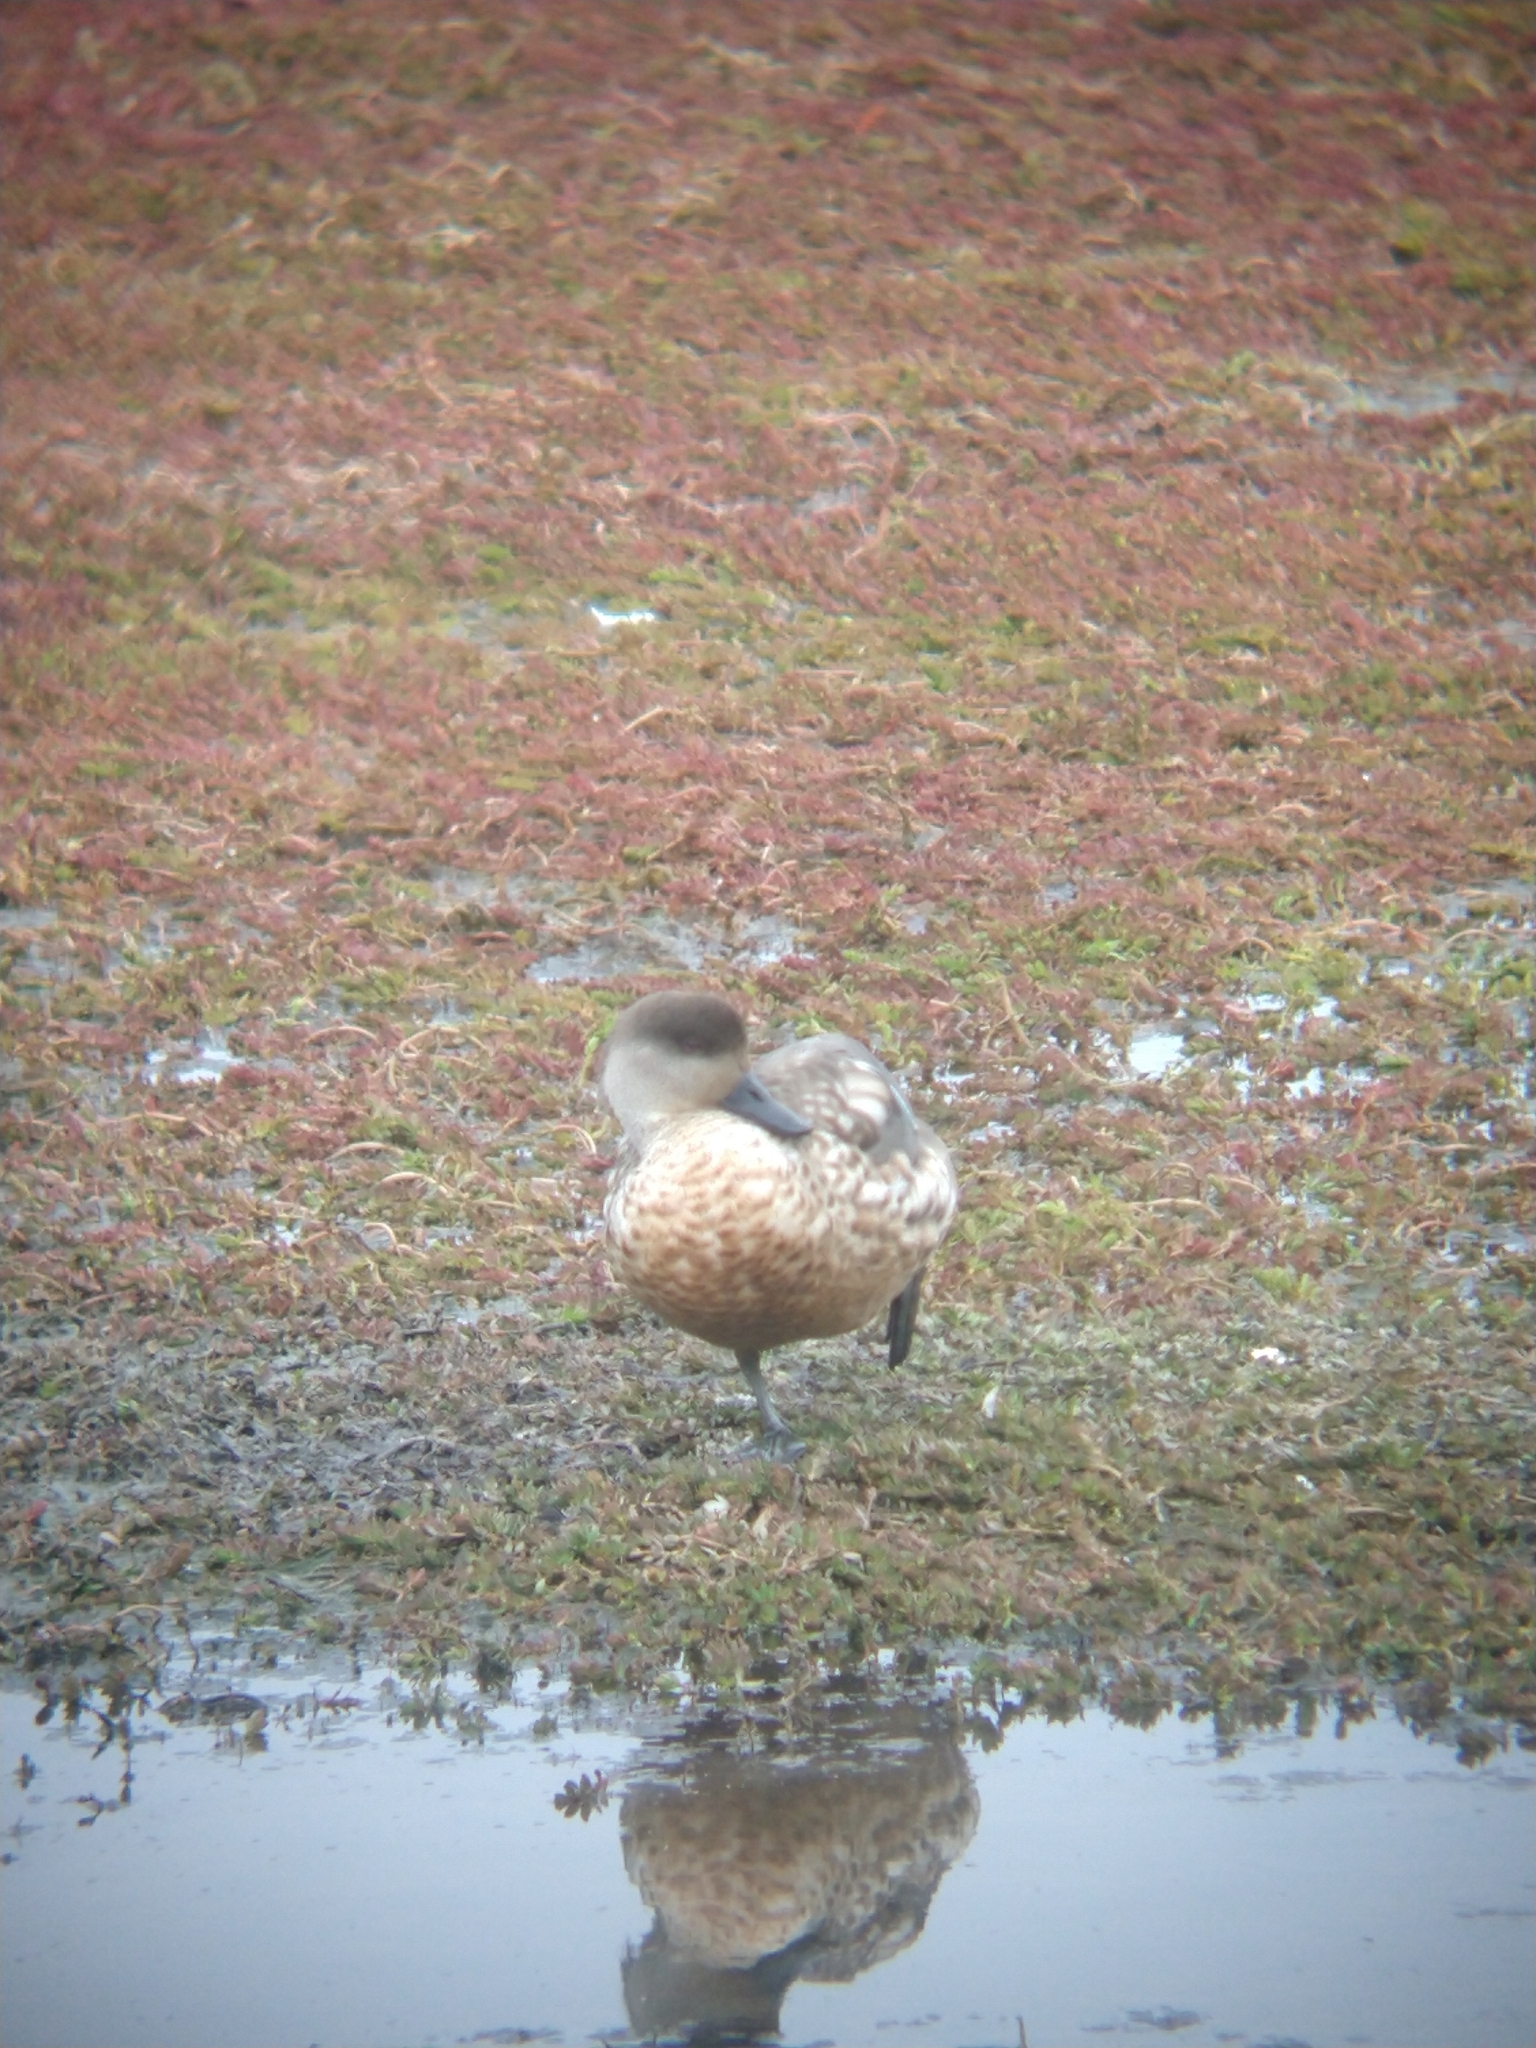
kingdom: Animalia
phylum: Chordata
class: Aves
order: Anseriformes
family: Anatidae
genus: Lophonetta
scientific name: Lophonetta specularioides
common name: Crested duck
